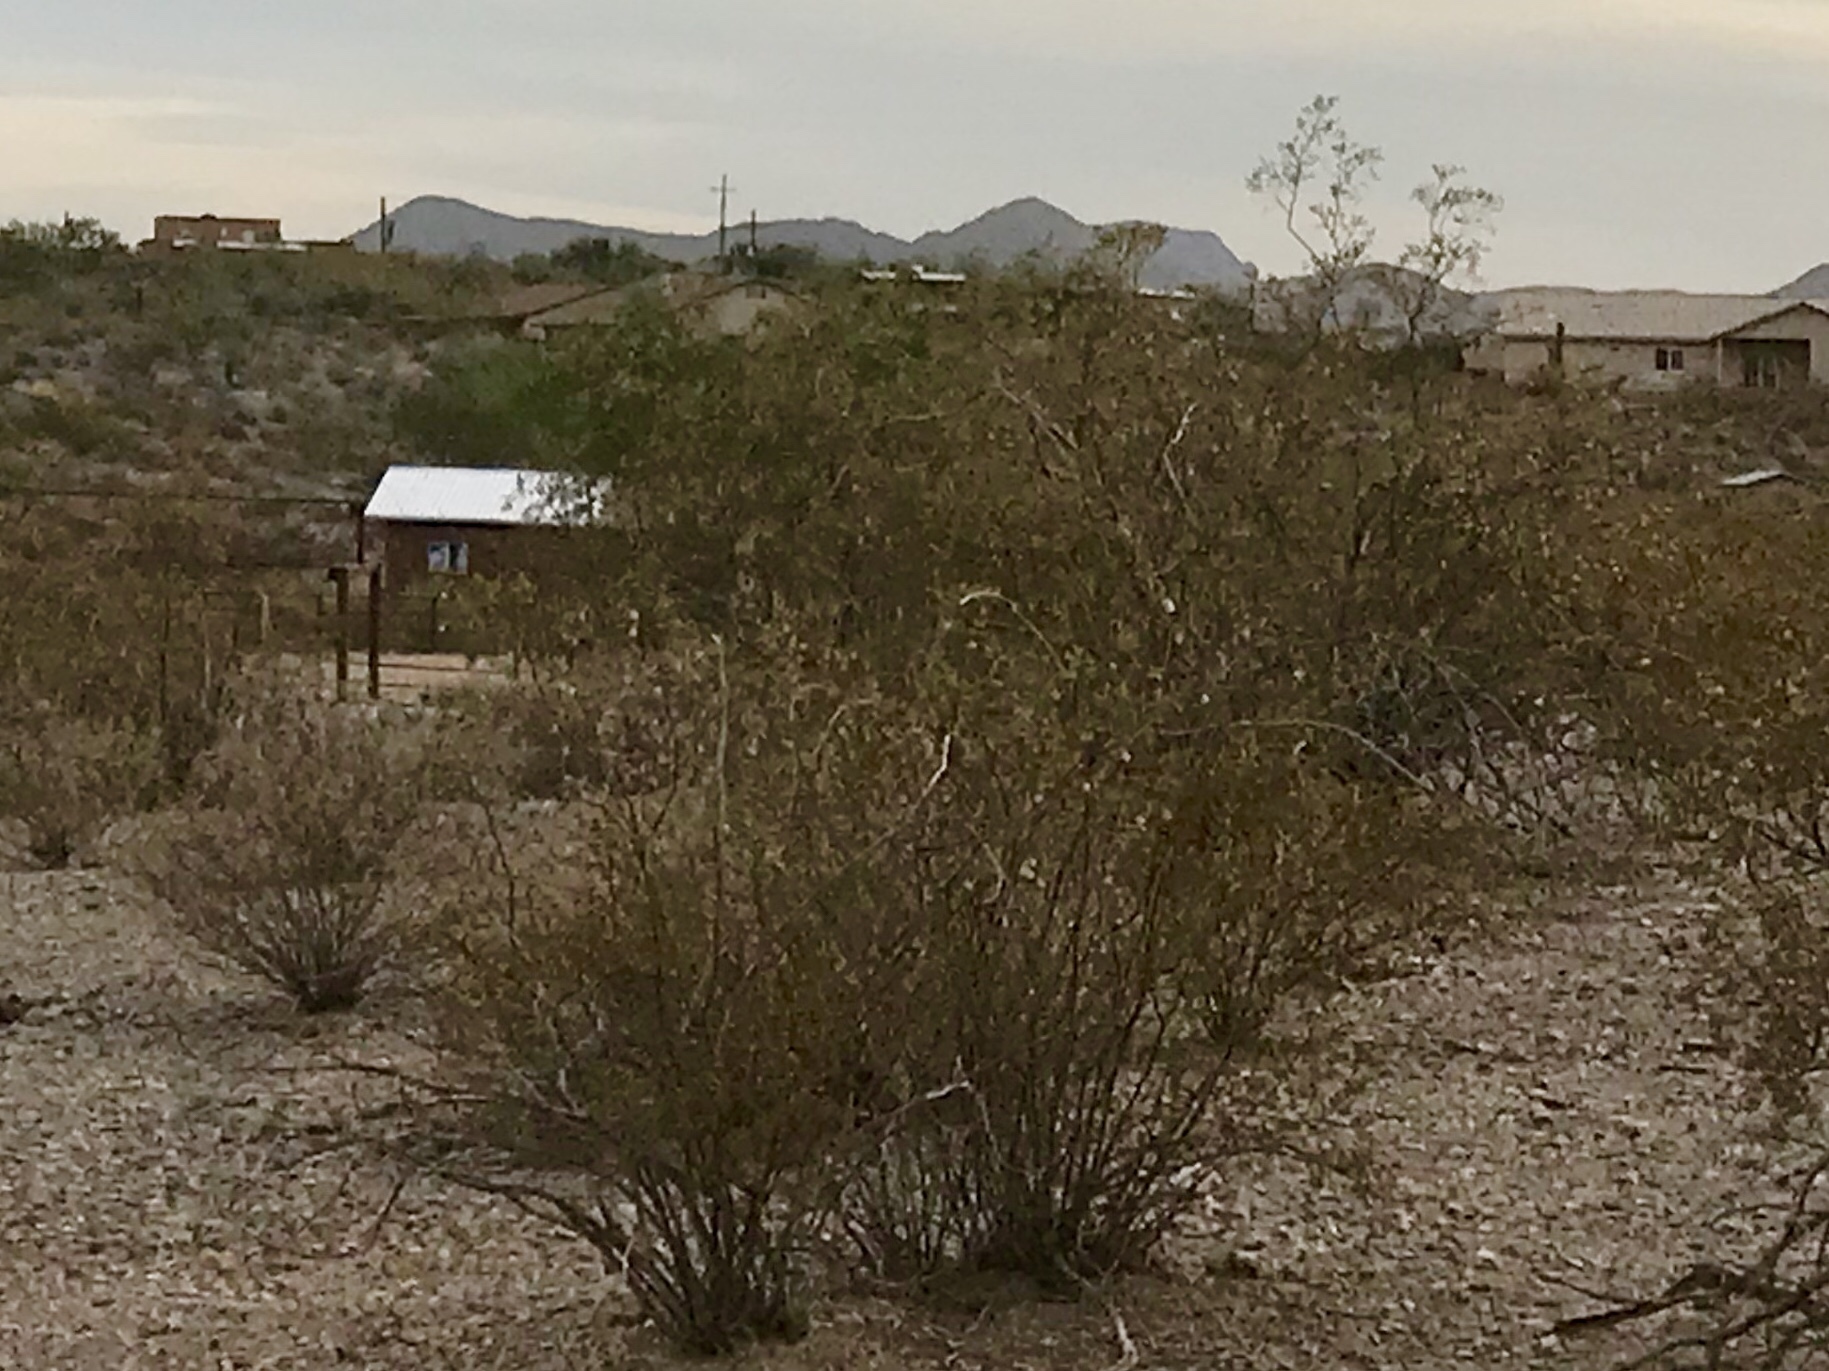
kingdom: Plantae
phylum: Tracheophyta
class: Magnoliopsida
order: Zygophyllales
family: Zygophyllaceae
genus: Larrea
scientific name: Larrea tridentata
